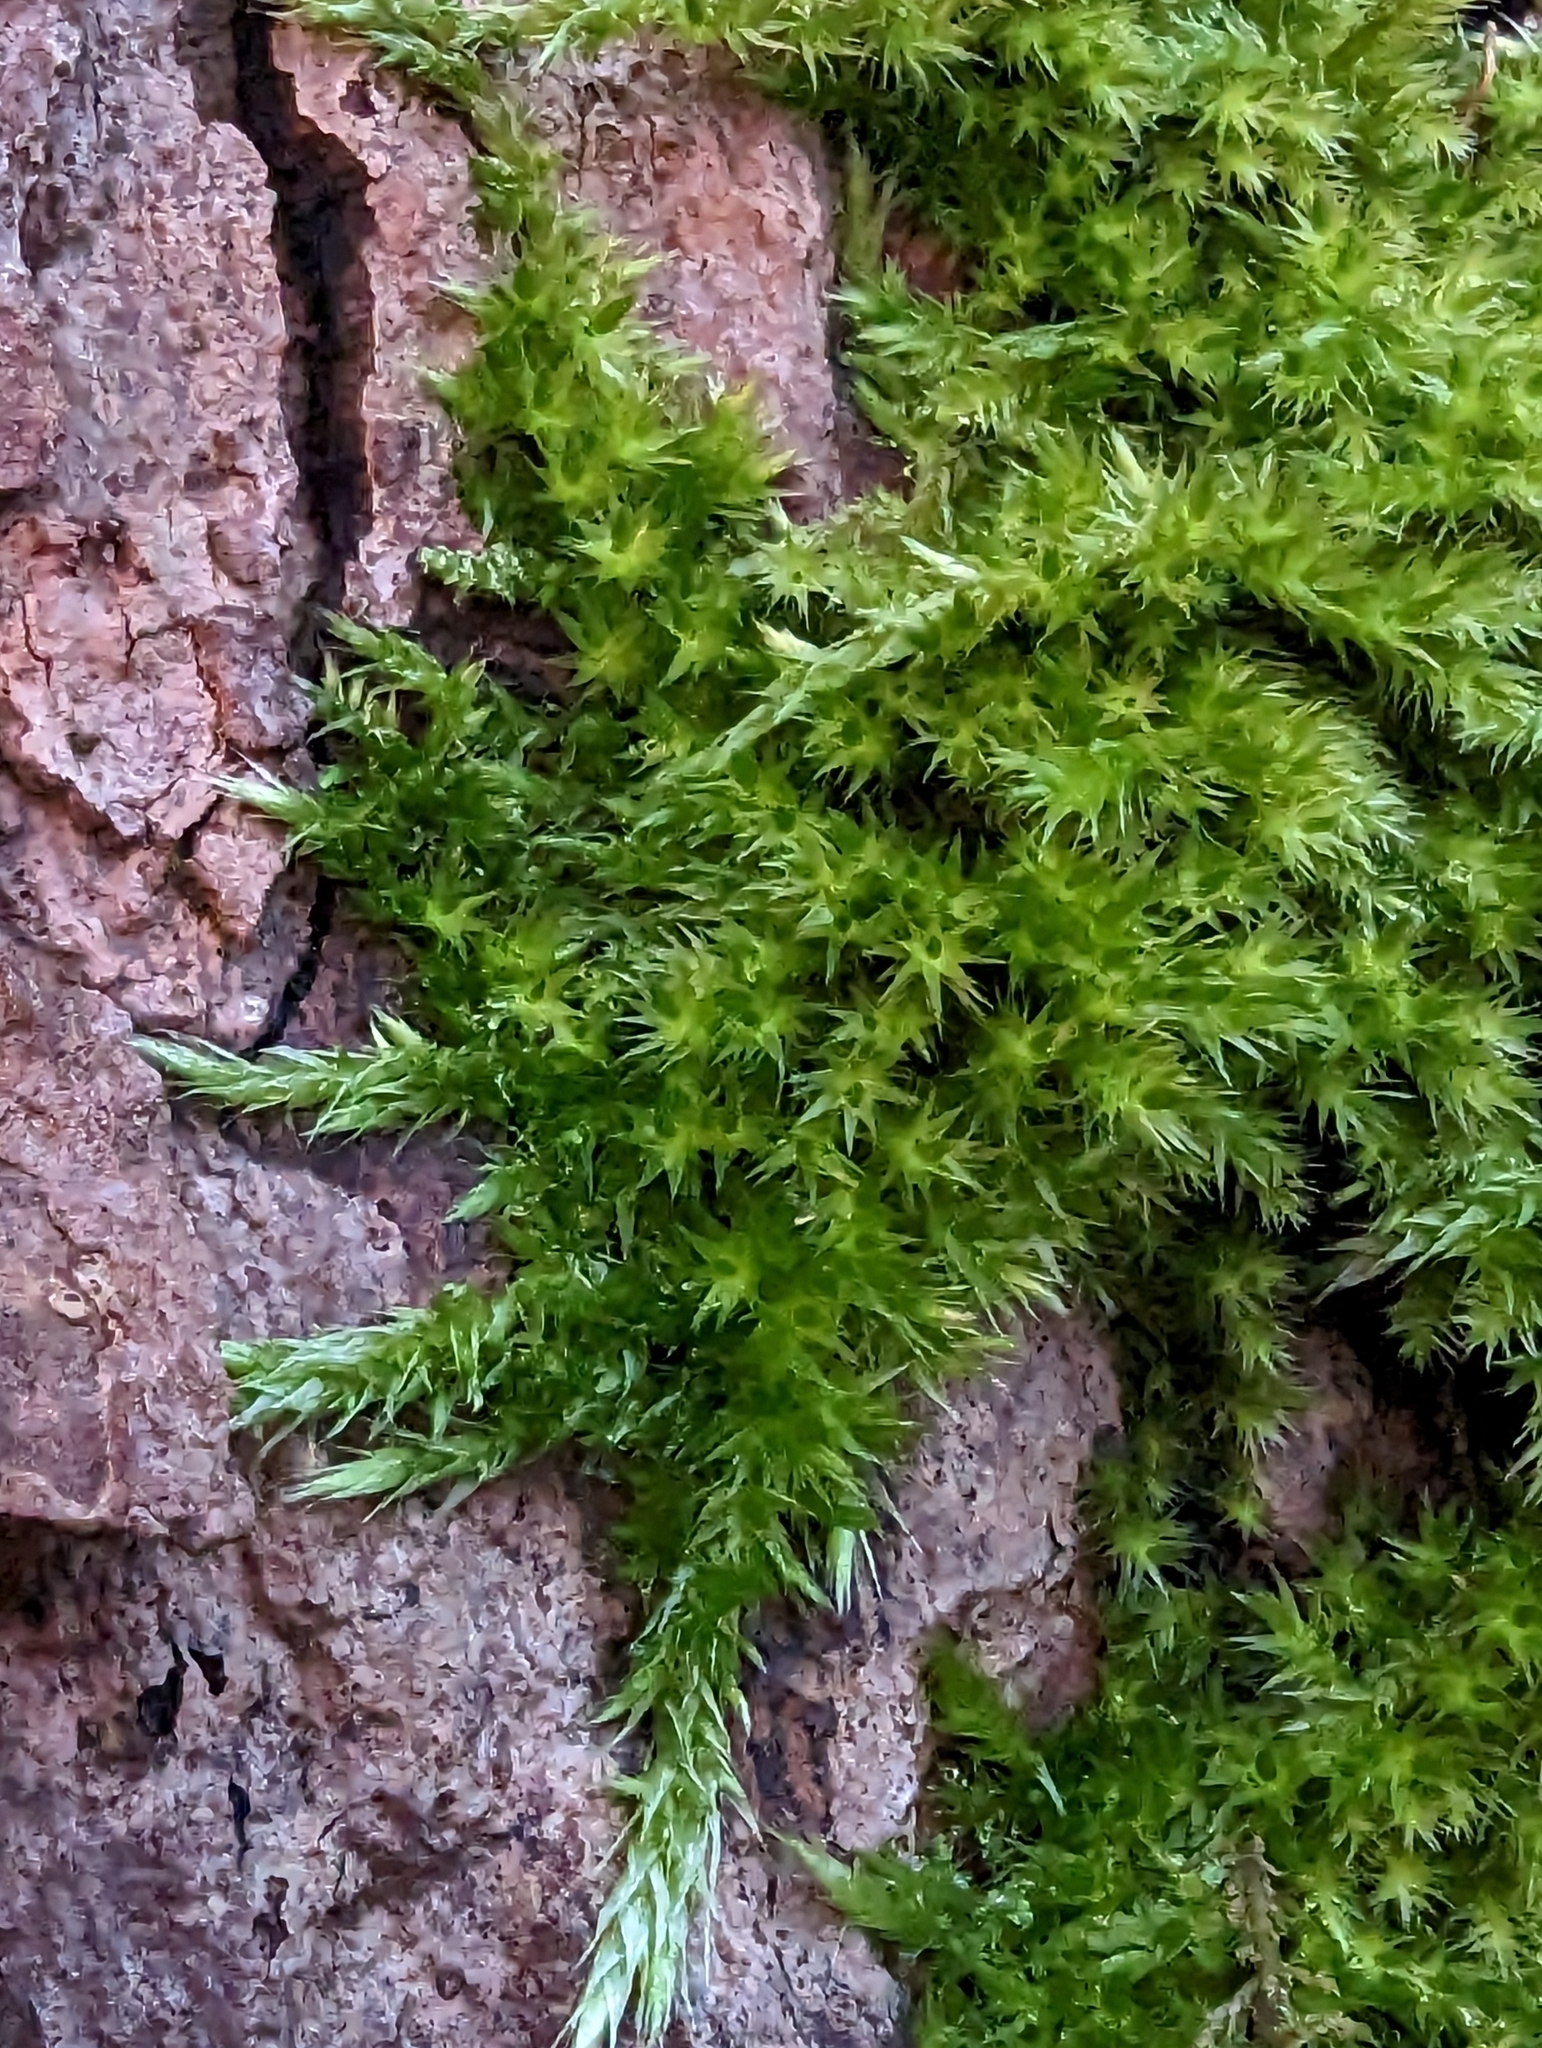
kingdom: Plantae
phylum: Bryophyta
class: Bryopsida
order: Hypnales
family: Brachytheciaceae
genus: Homalothecium
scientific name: Homalothecium fulgescens
